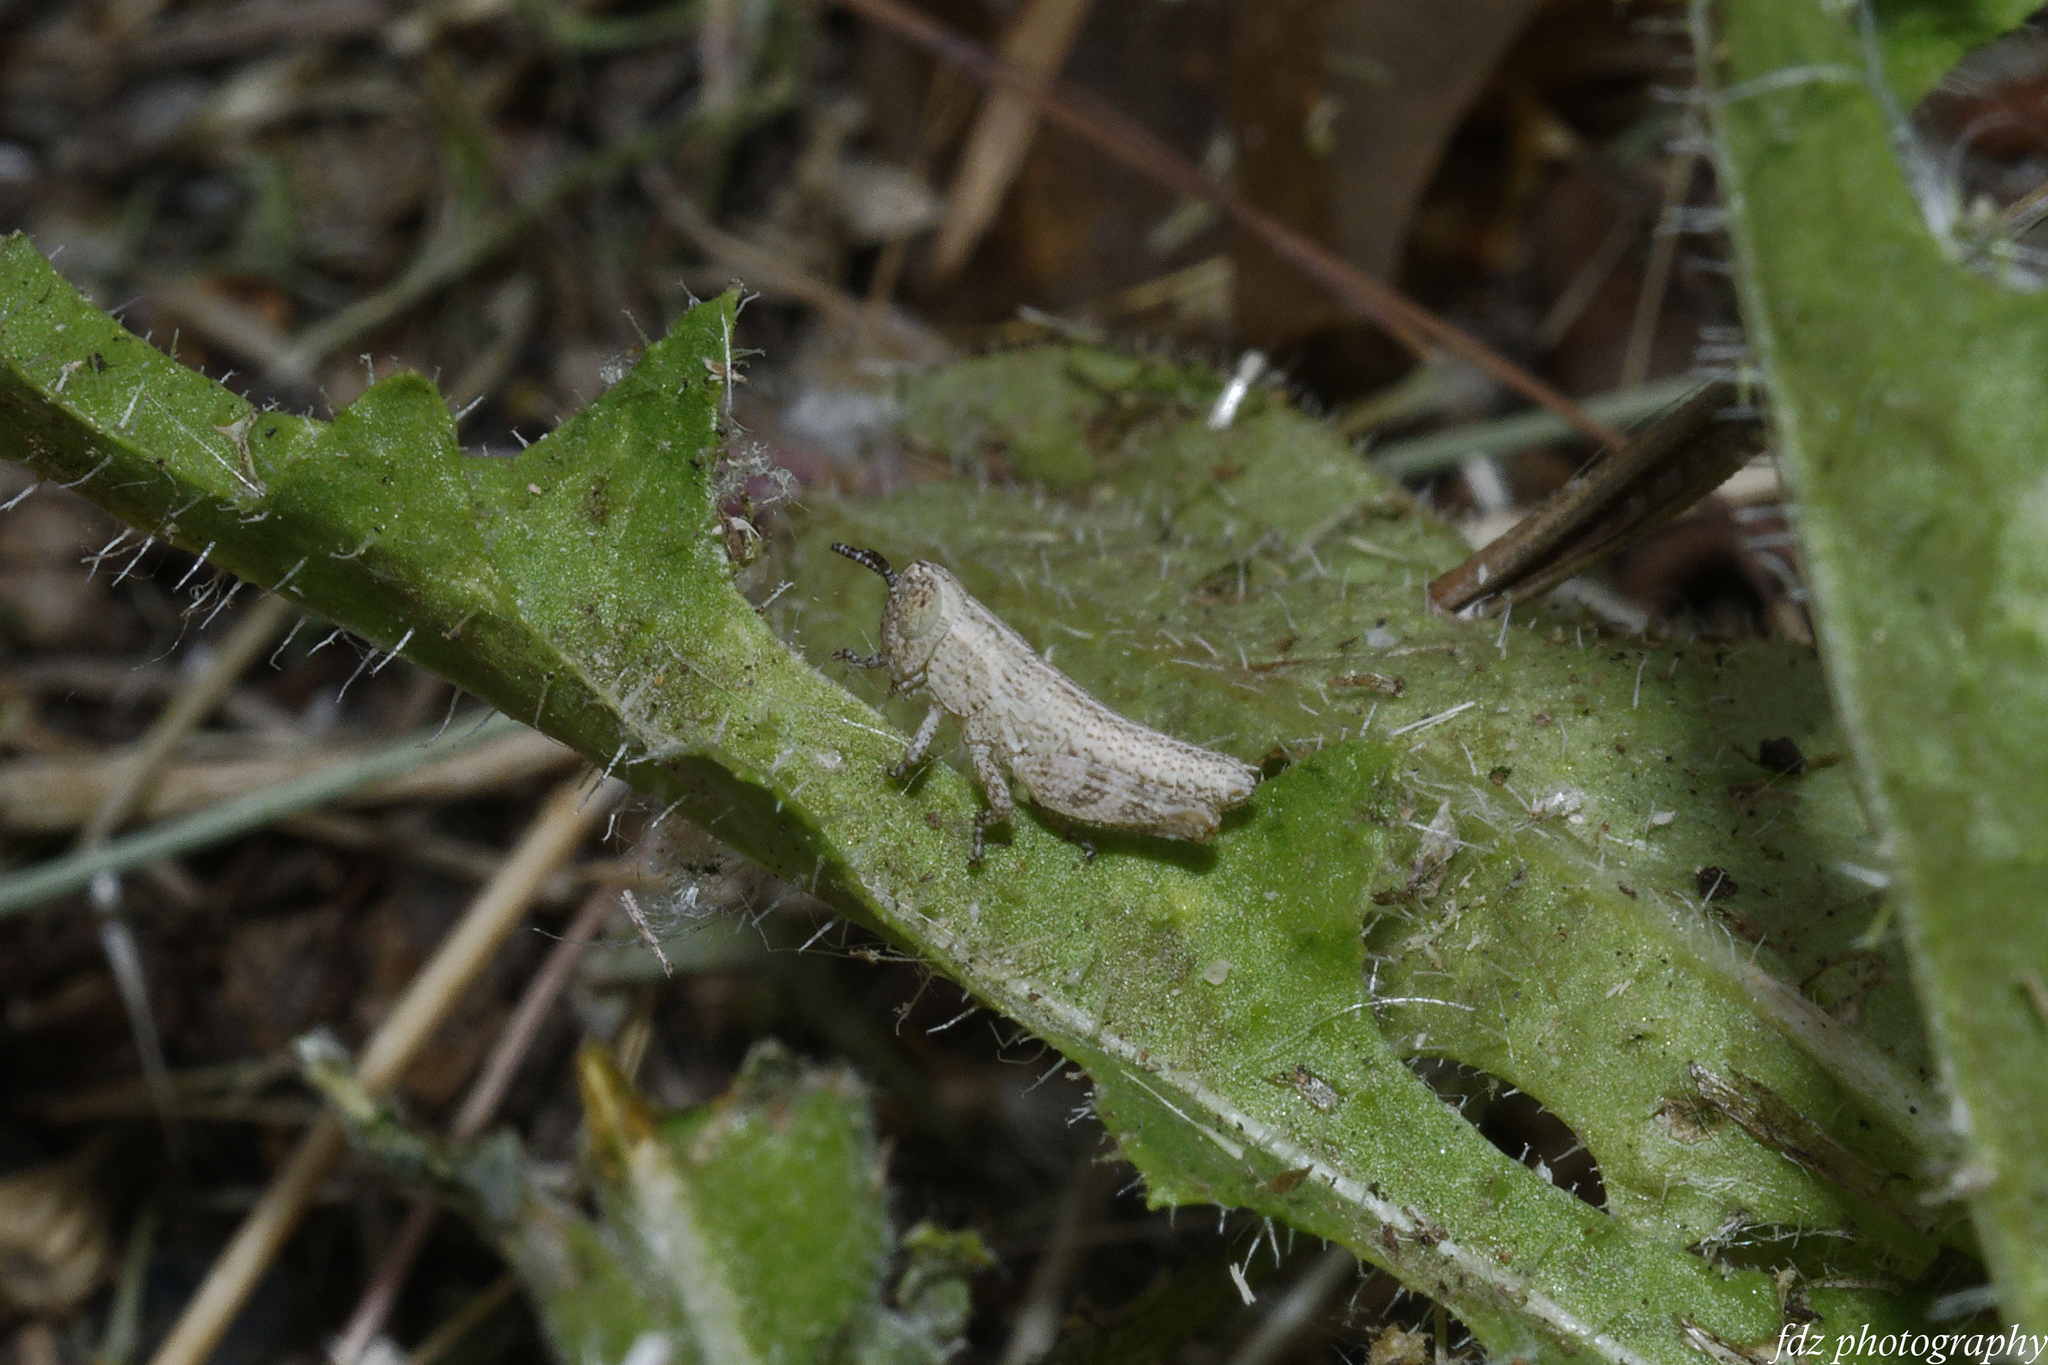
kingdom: Animalia
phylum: Arthropoda
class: Insecta
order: Orthoptera
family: Acrididae
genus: Pezotettix
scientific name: Pezotettix giornae
